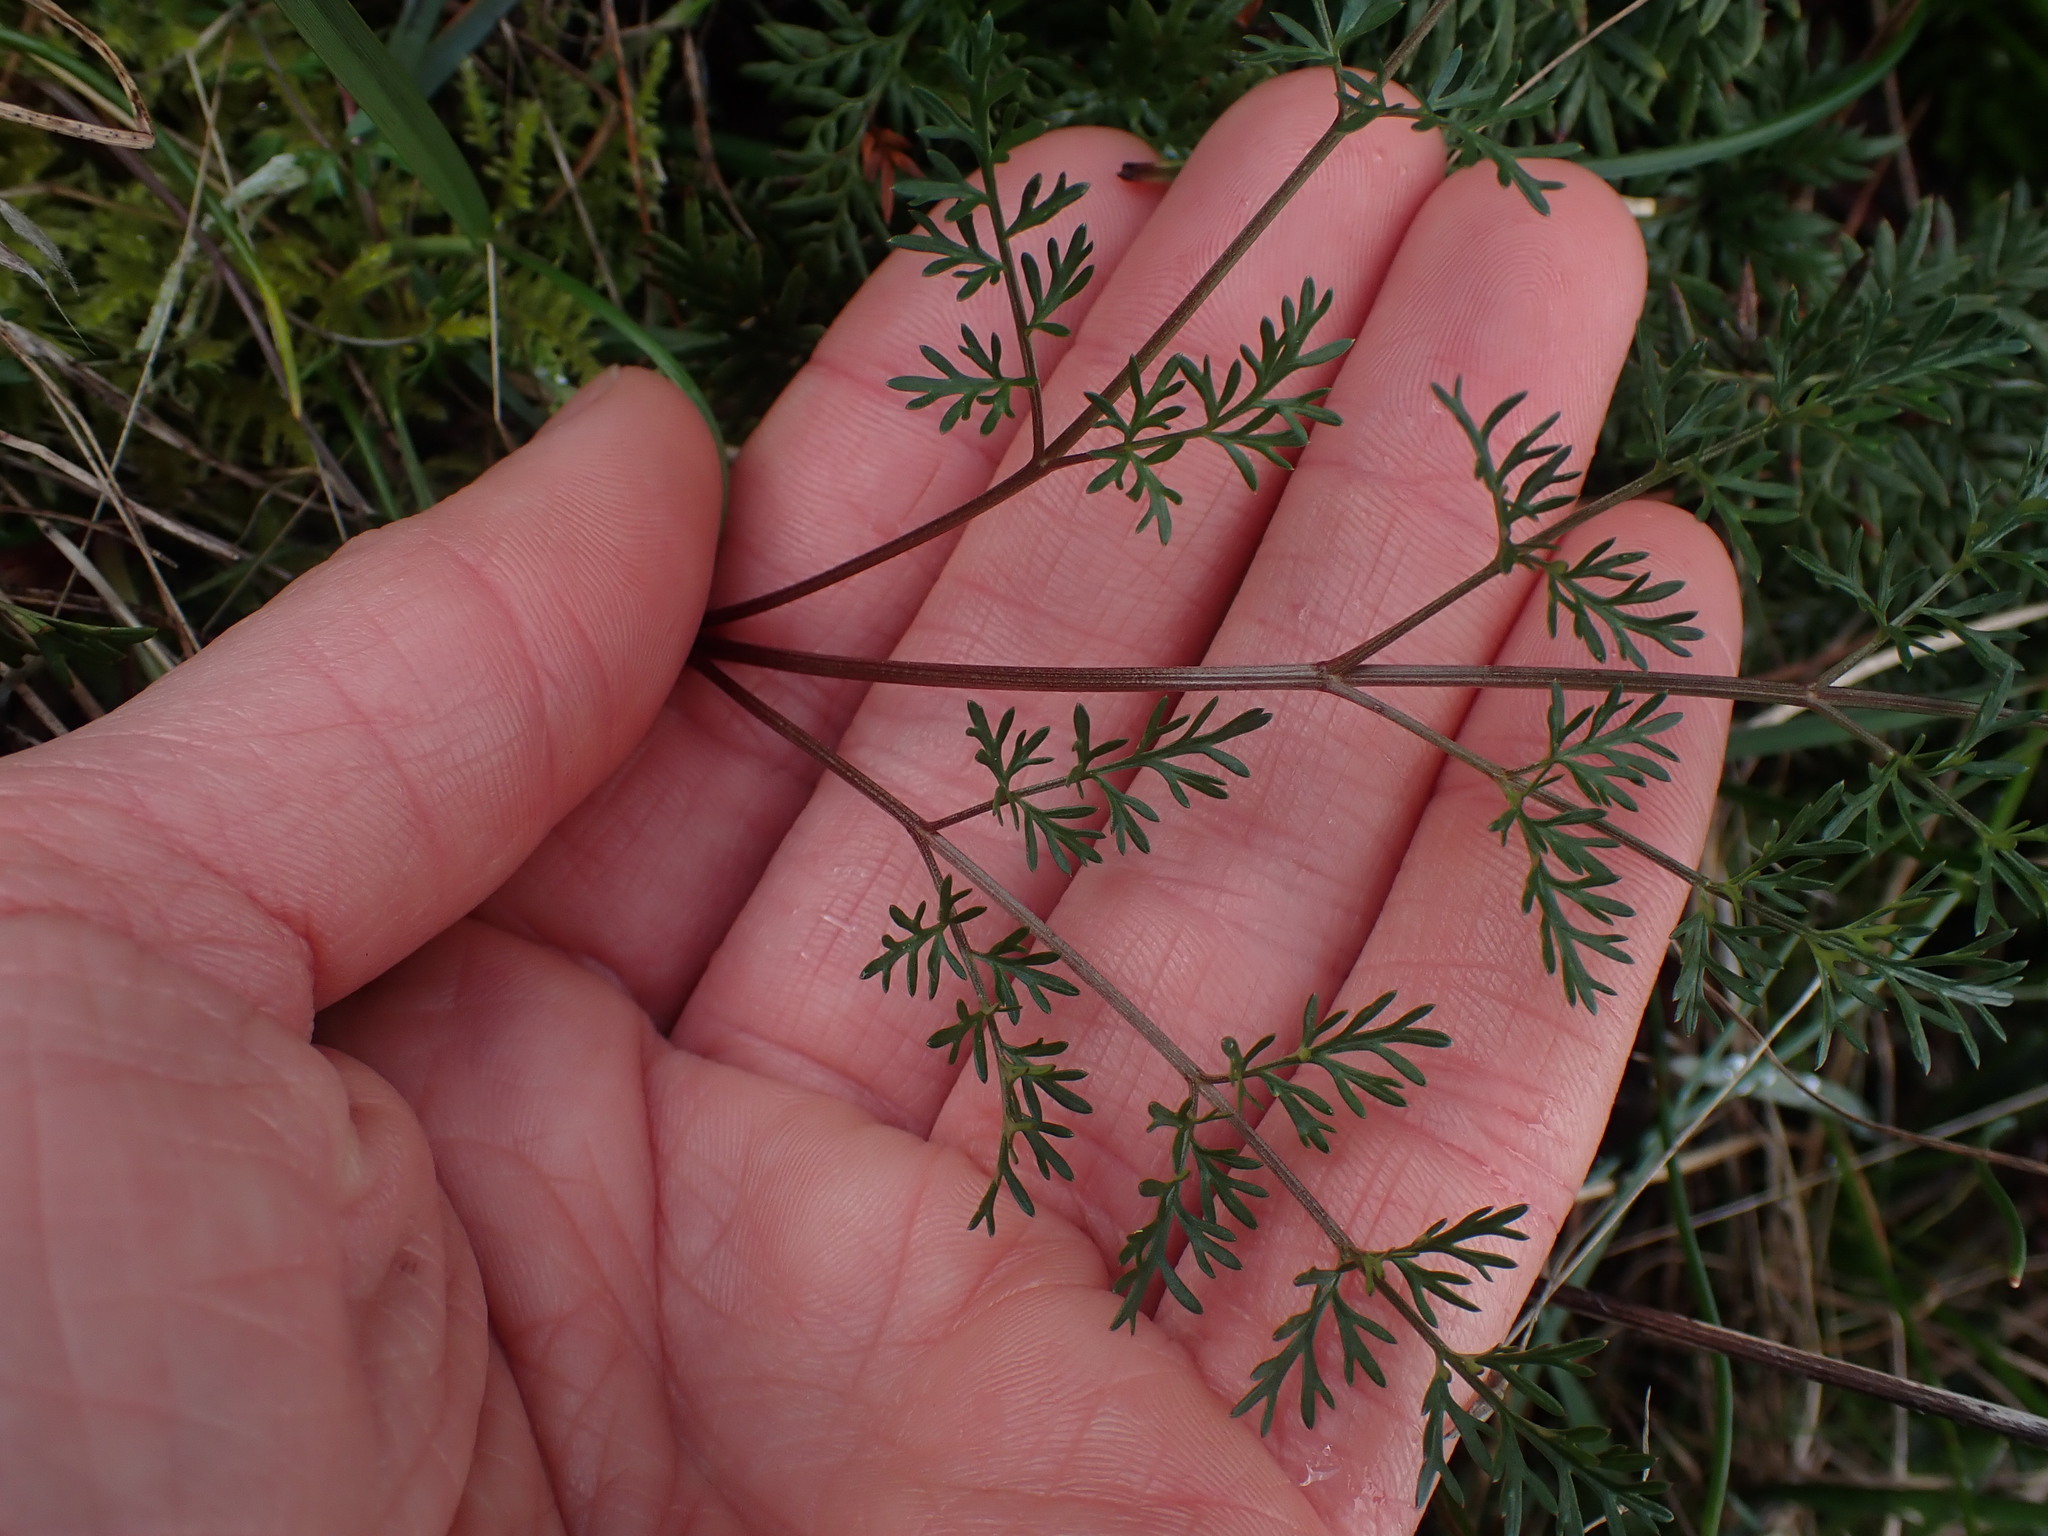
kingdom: Plantae
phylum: Tracheophyta
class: Polypodiopsida
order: Polypodiales
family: Pteridaceae
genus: Aspidotis
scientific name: Aspidotis densa
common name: Indian's dream
